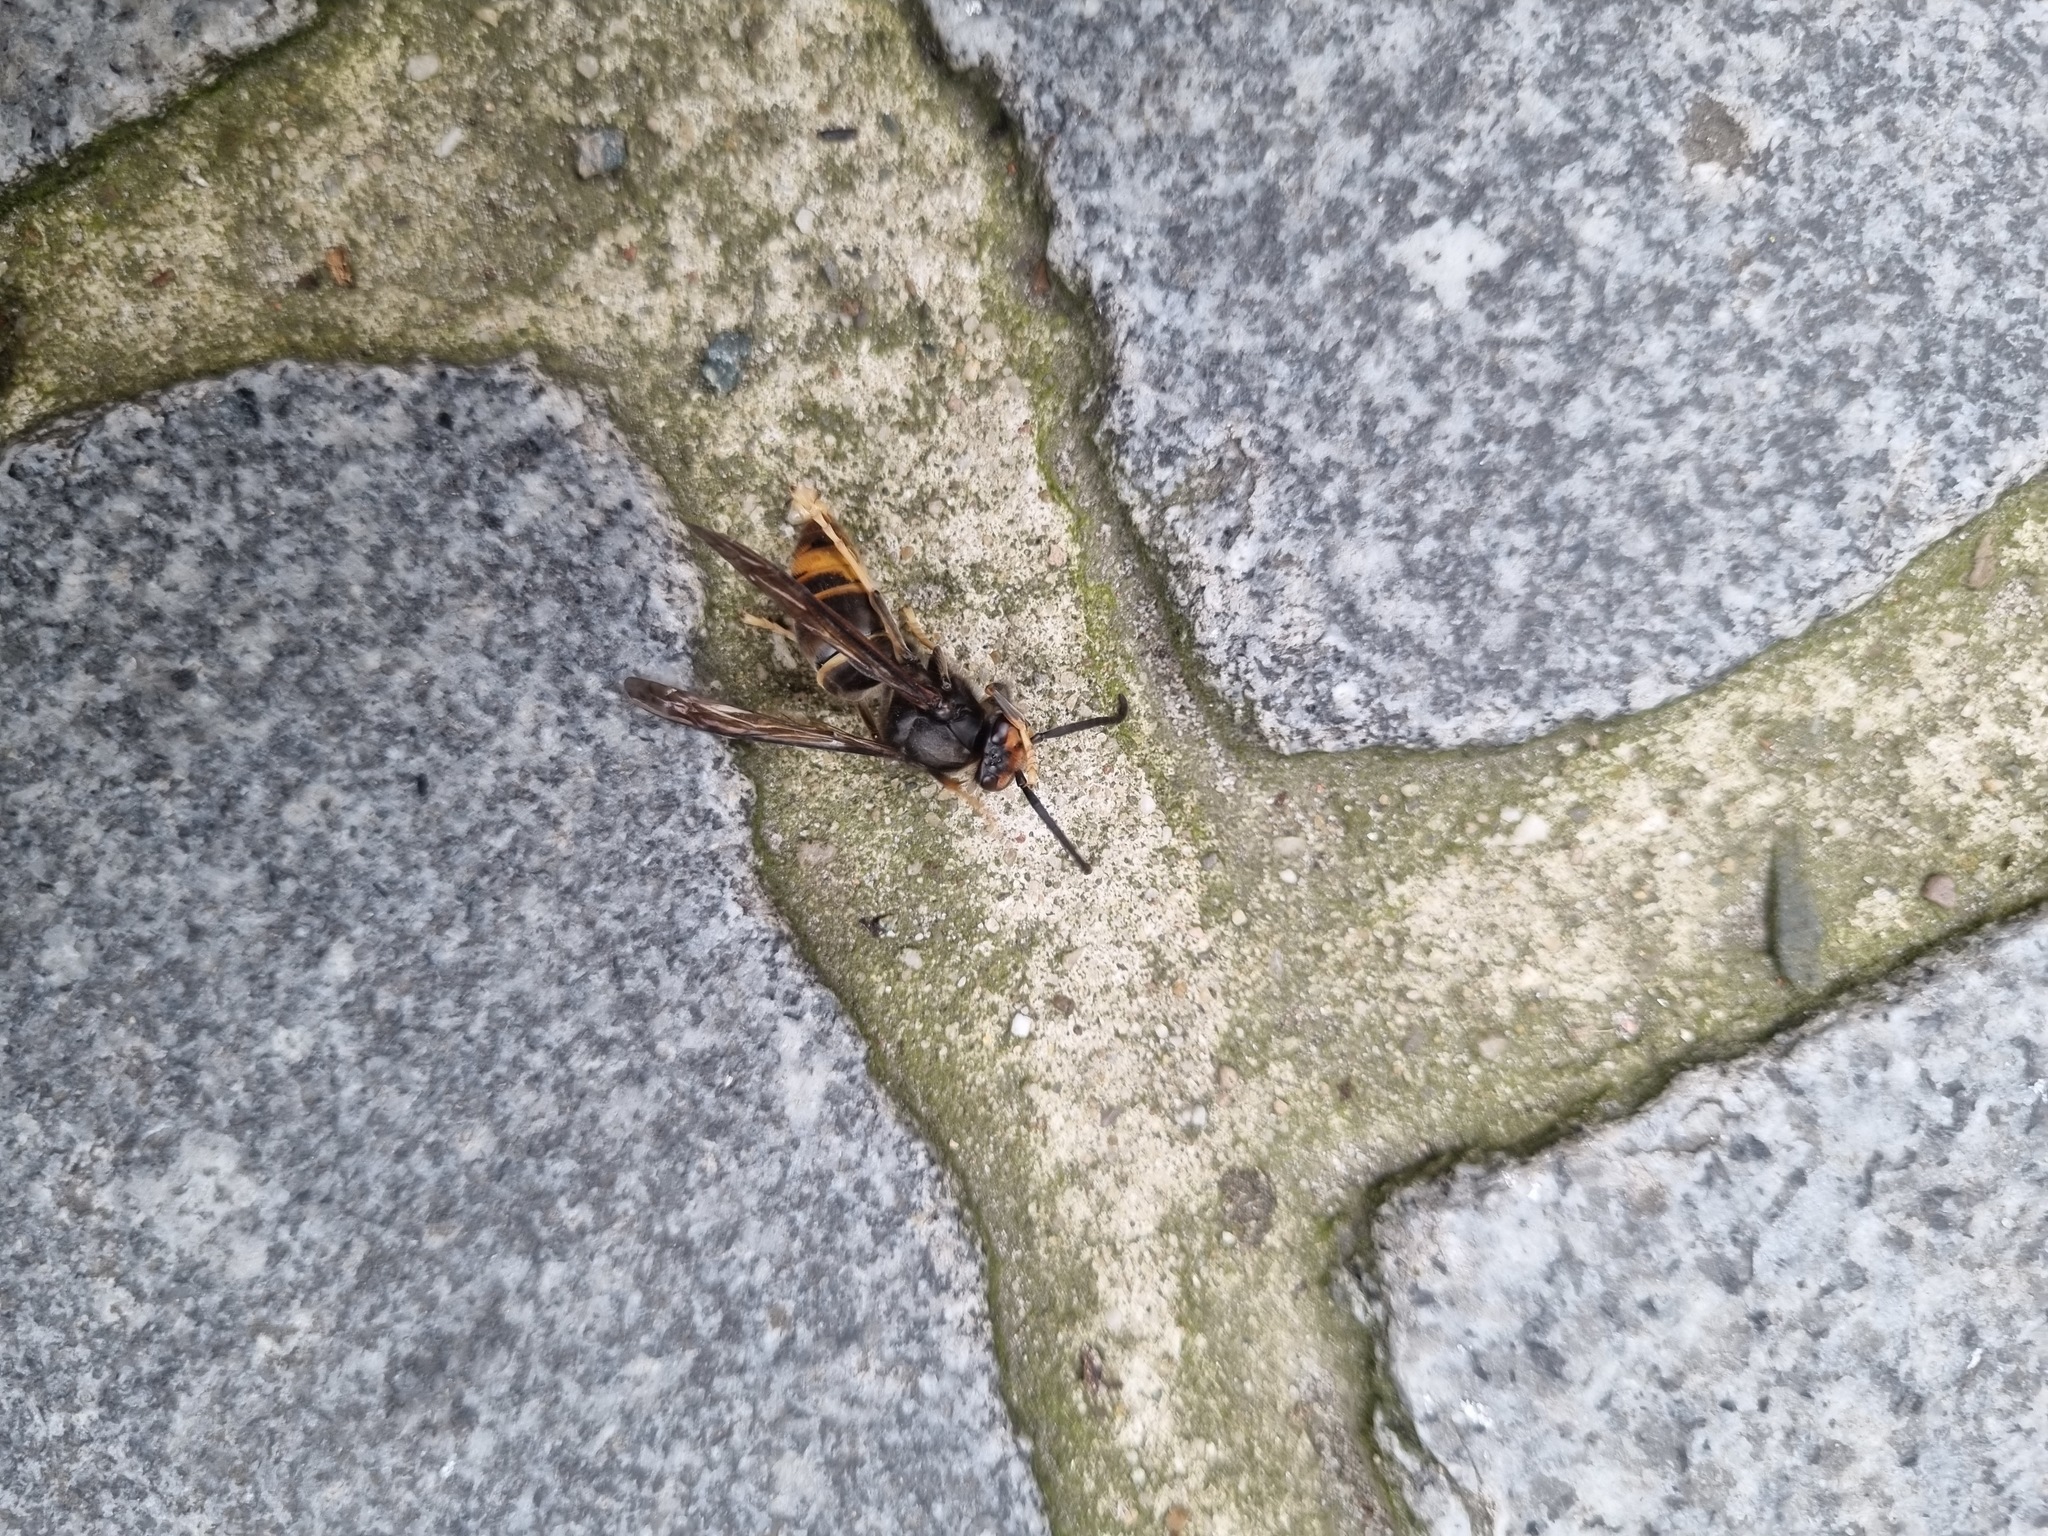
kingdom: Animalia
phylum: Arthropoda
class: Insecta
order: Hymenoptera
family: Vespidae
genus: Vespa
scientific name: Vespa velutina
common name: Asian hornet
